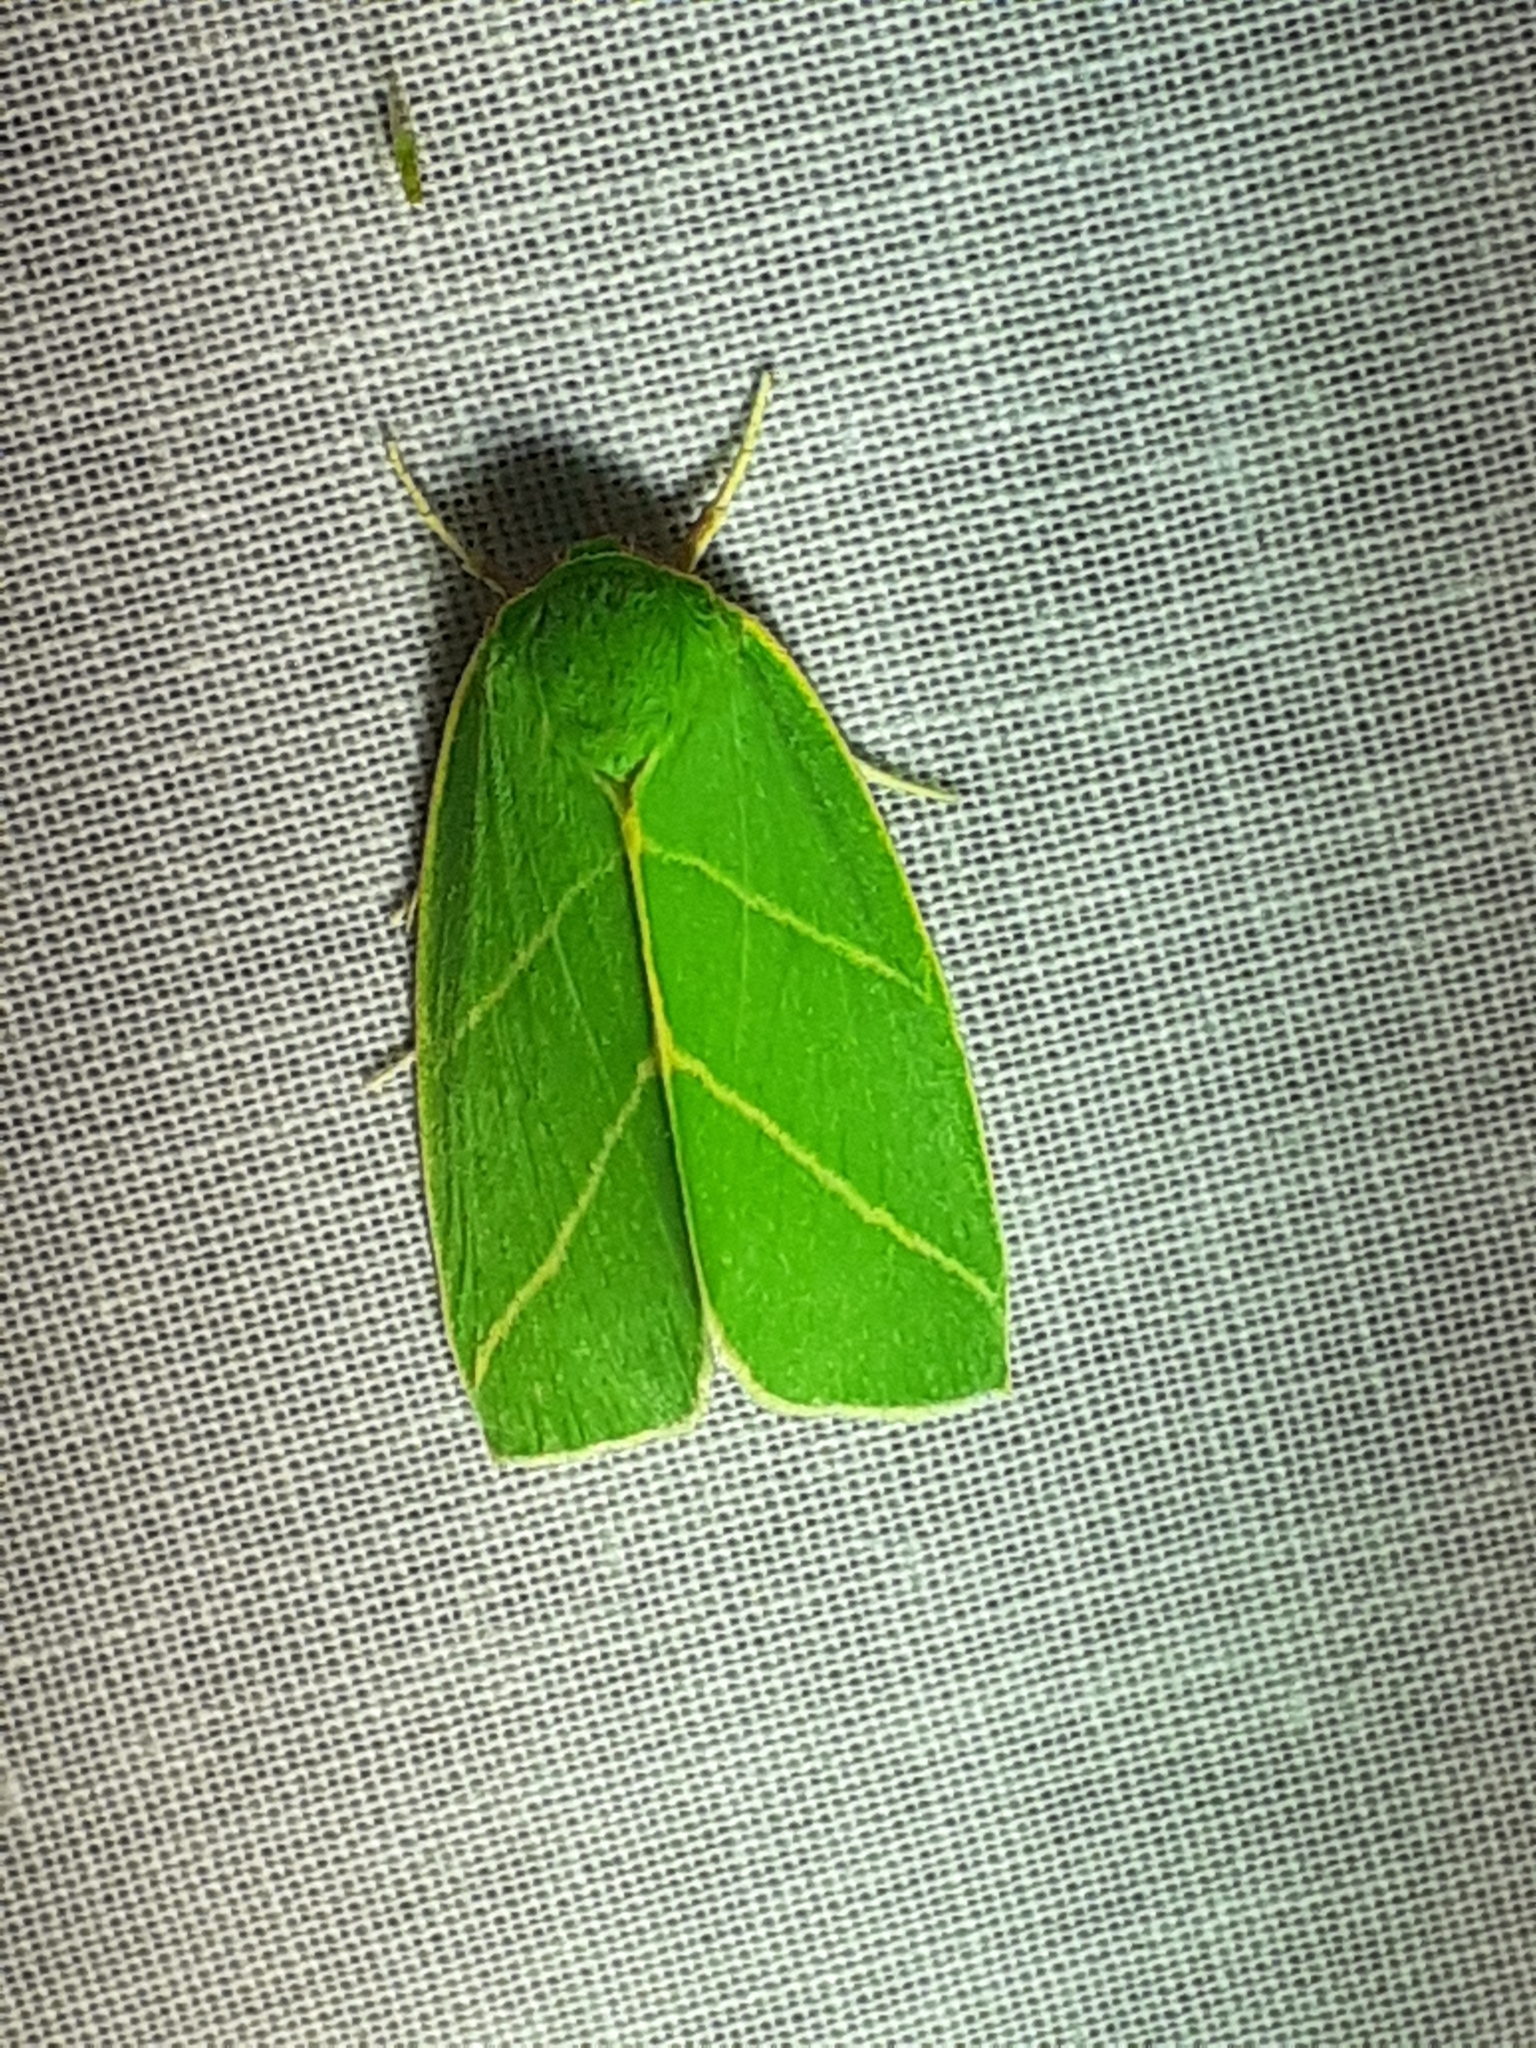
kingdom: Animalia
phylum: Arthropoda
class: Insecta
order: Lepidoptera
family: Nolidae
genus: Bena
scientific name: Bena bicolorana
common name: Scarce silver-lines
